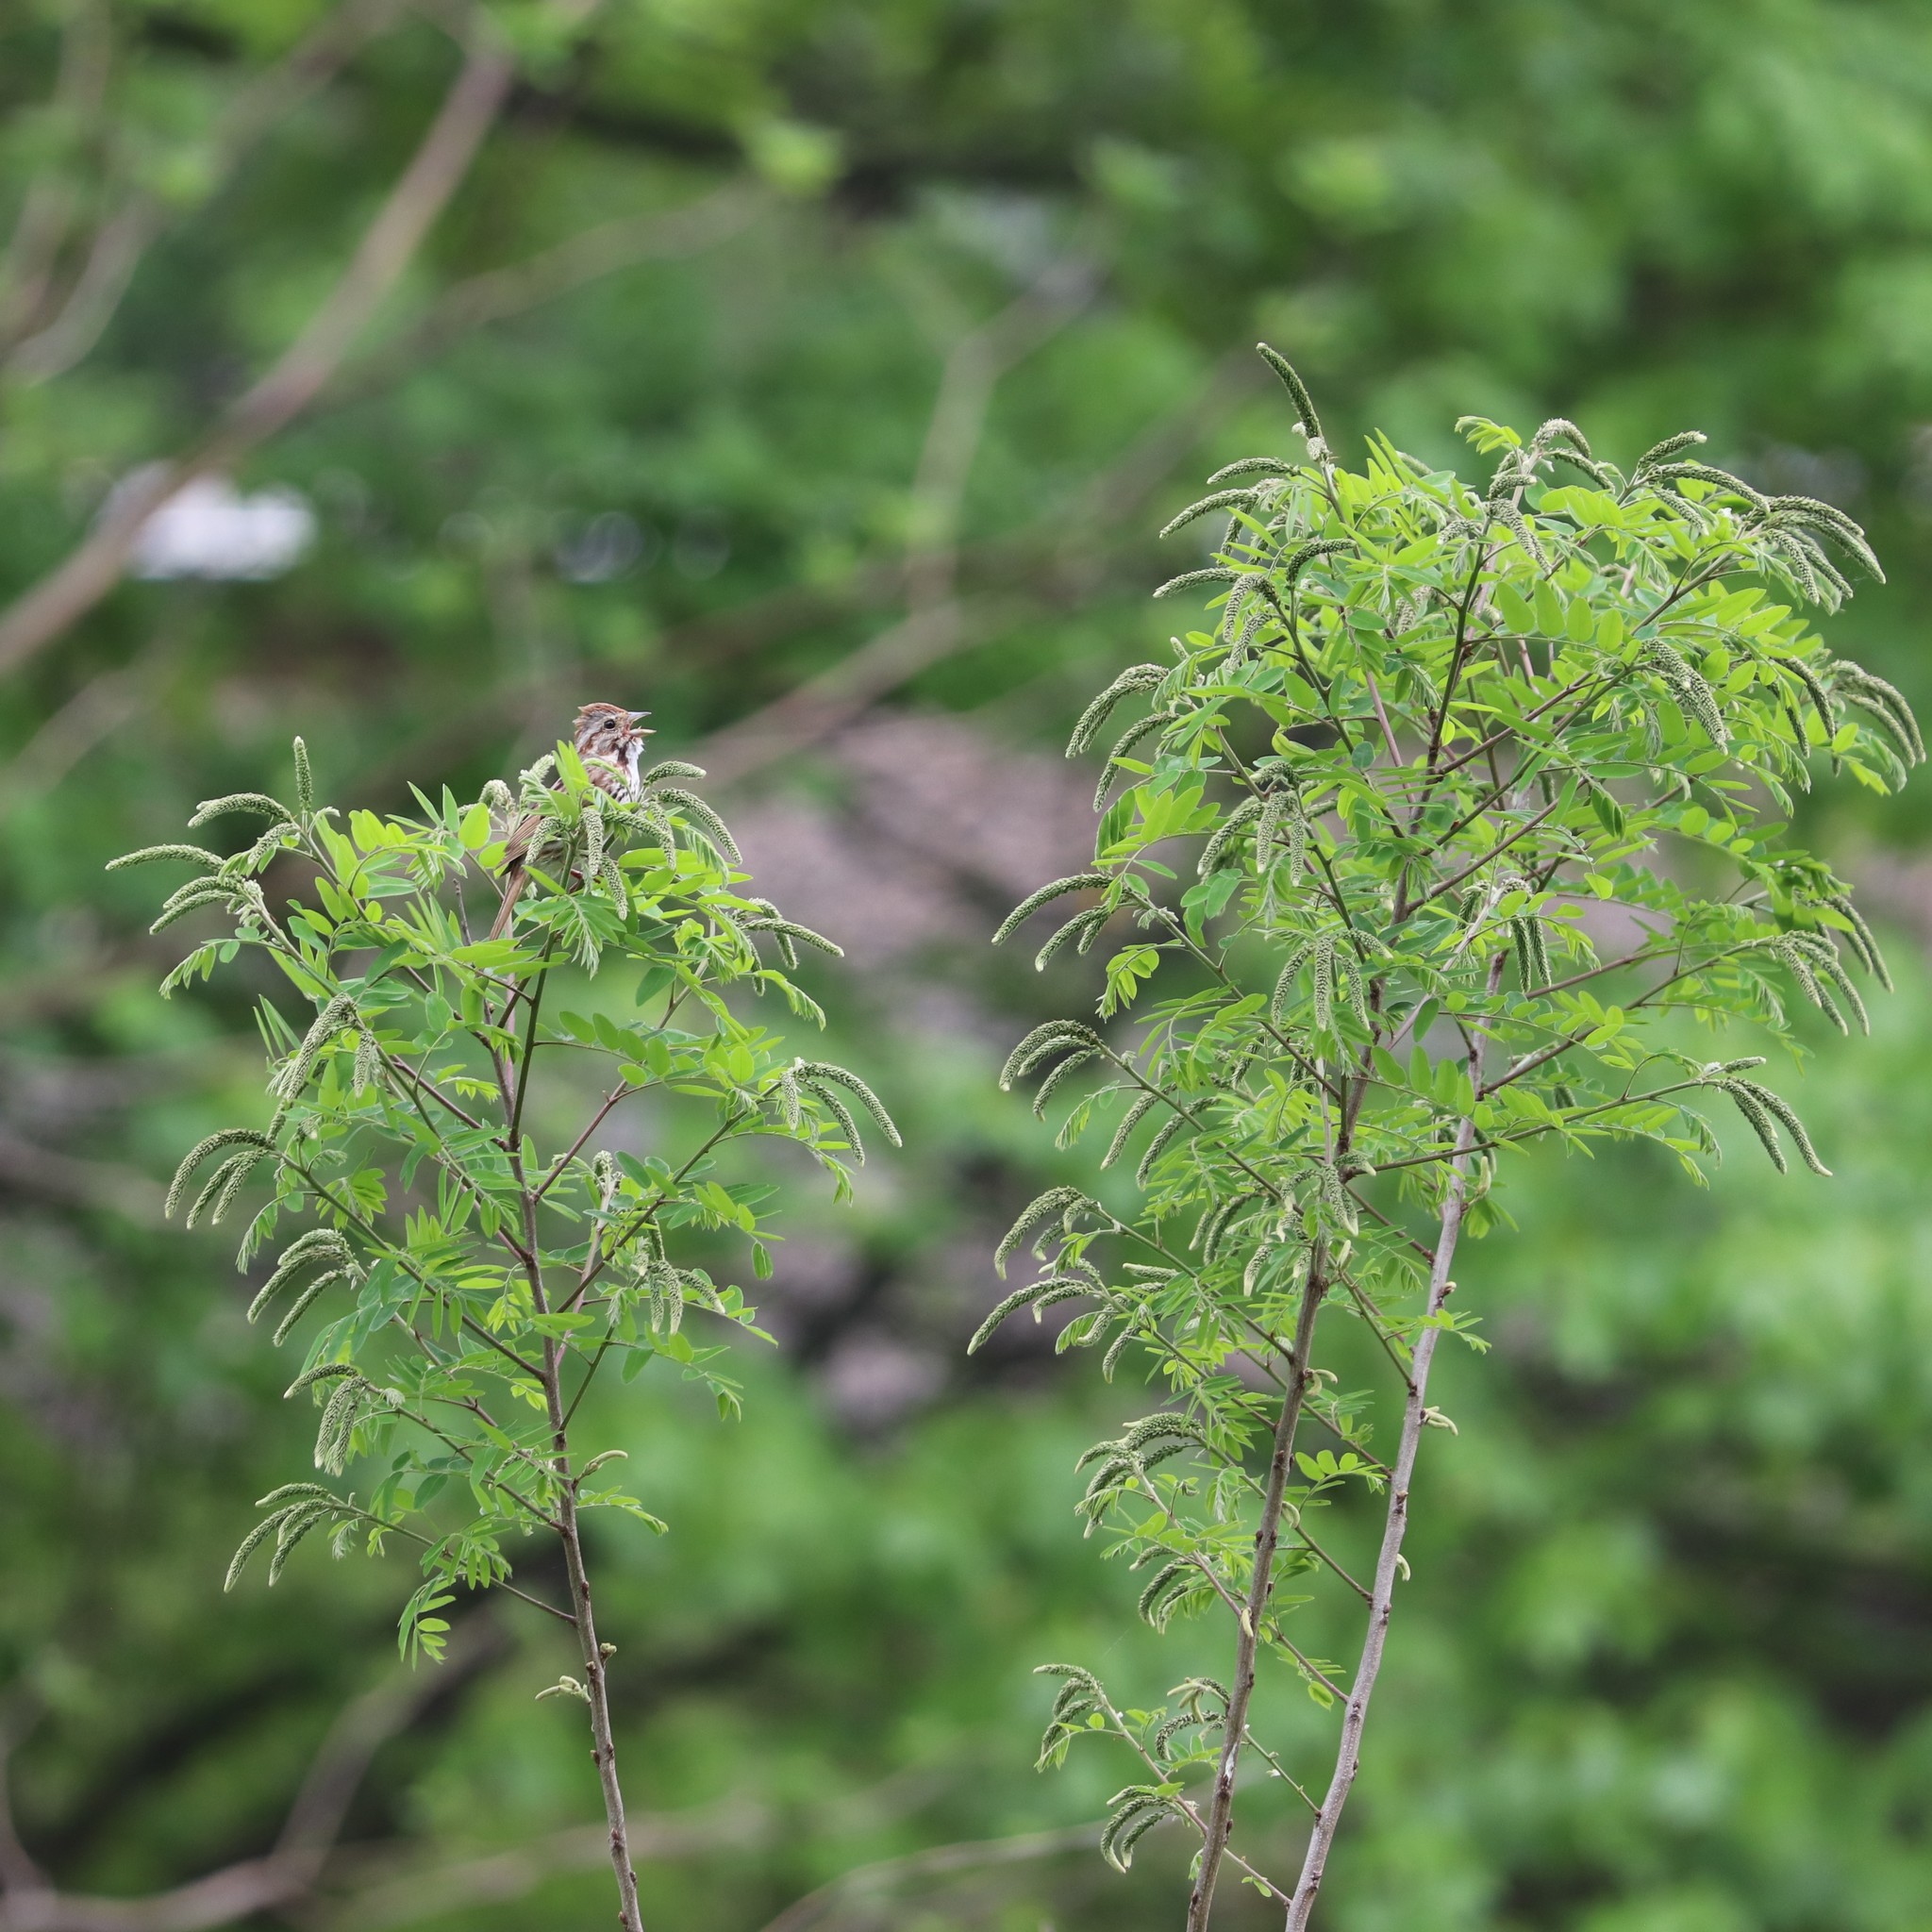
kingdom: Plantae
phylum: Tracheophyta
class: Magnoliopsida
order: Fabales
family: Fabaceae
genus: Amorpha
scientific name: Amorpha fruticosa
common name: False indigo
